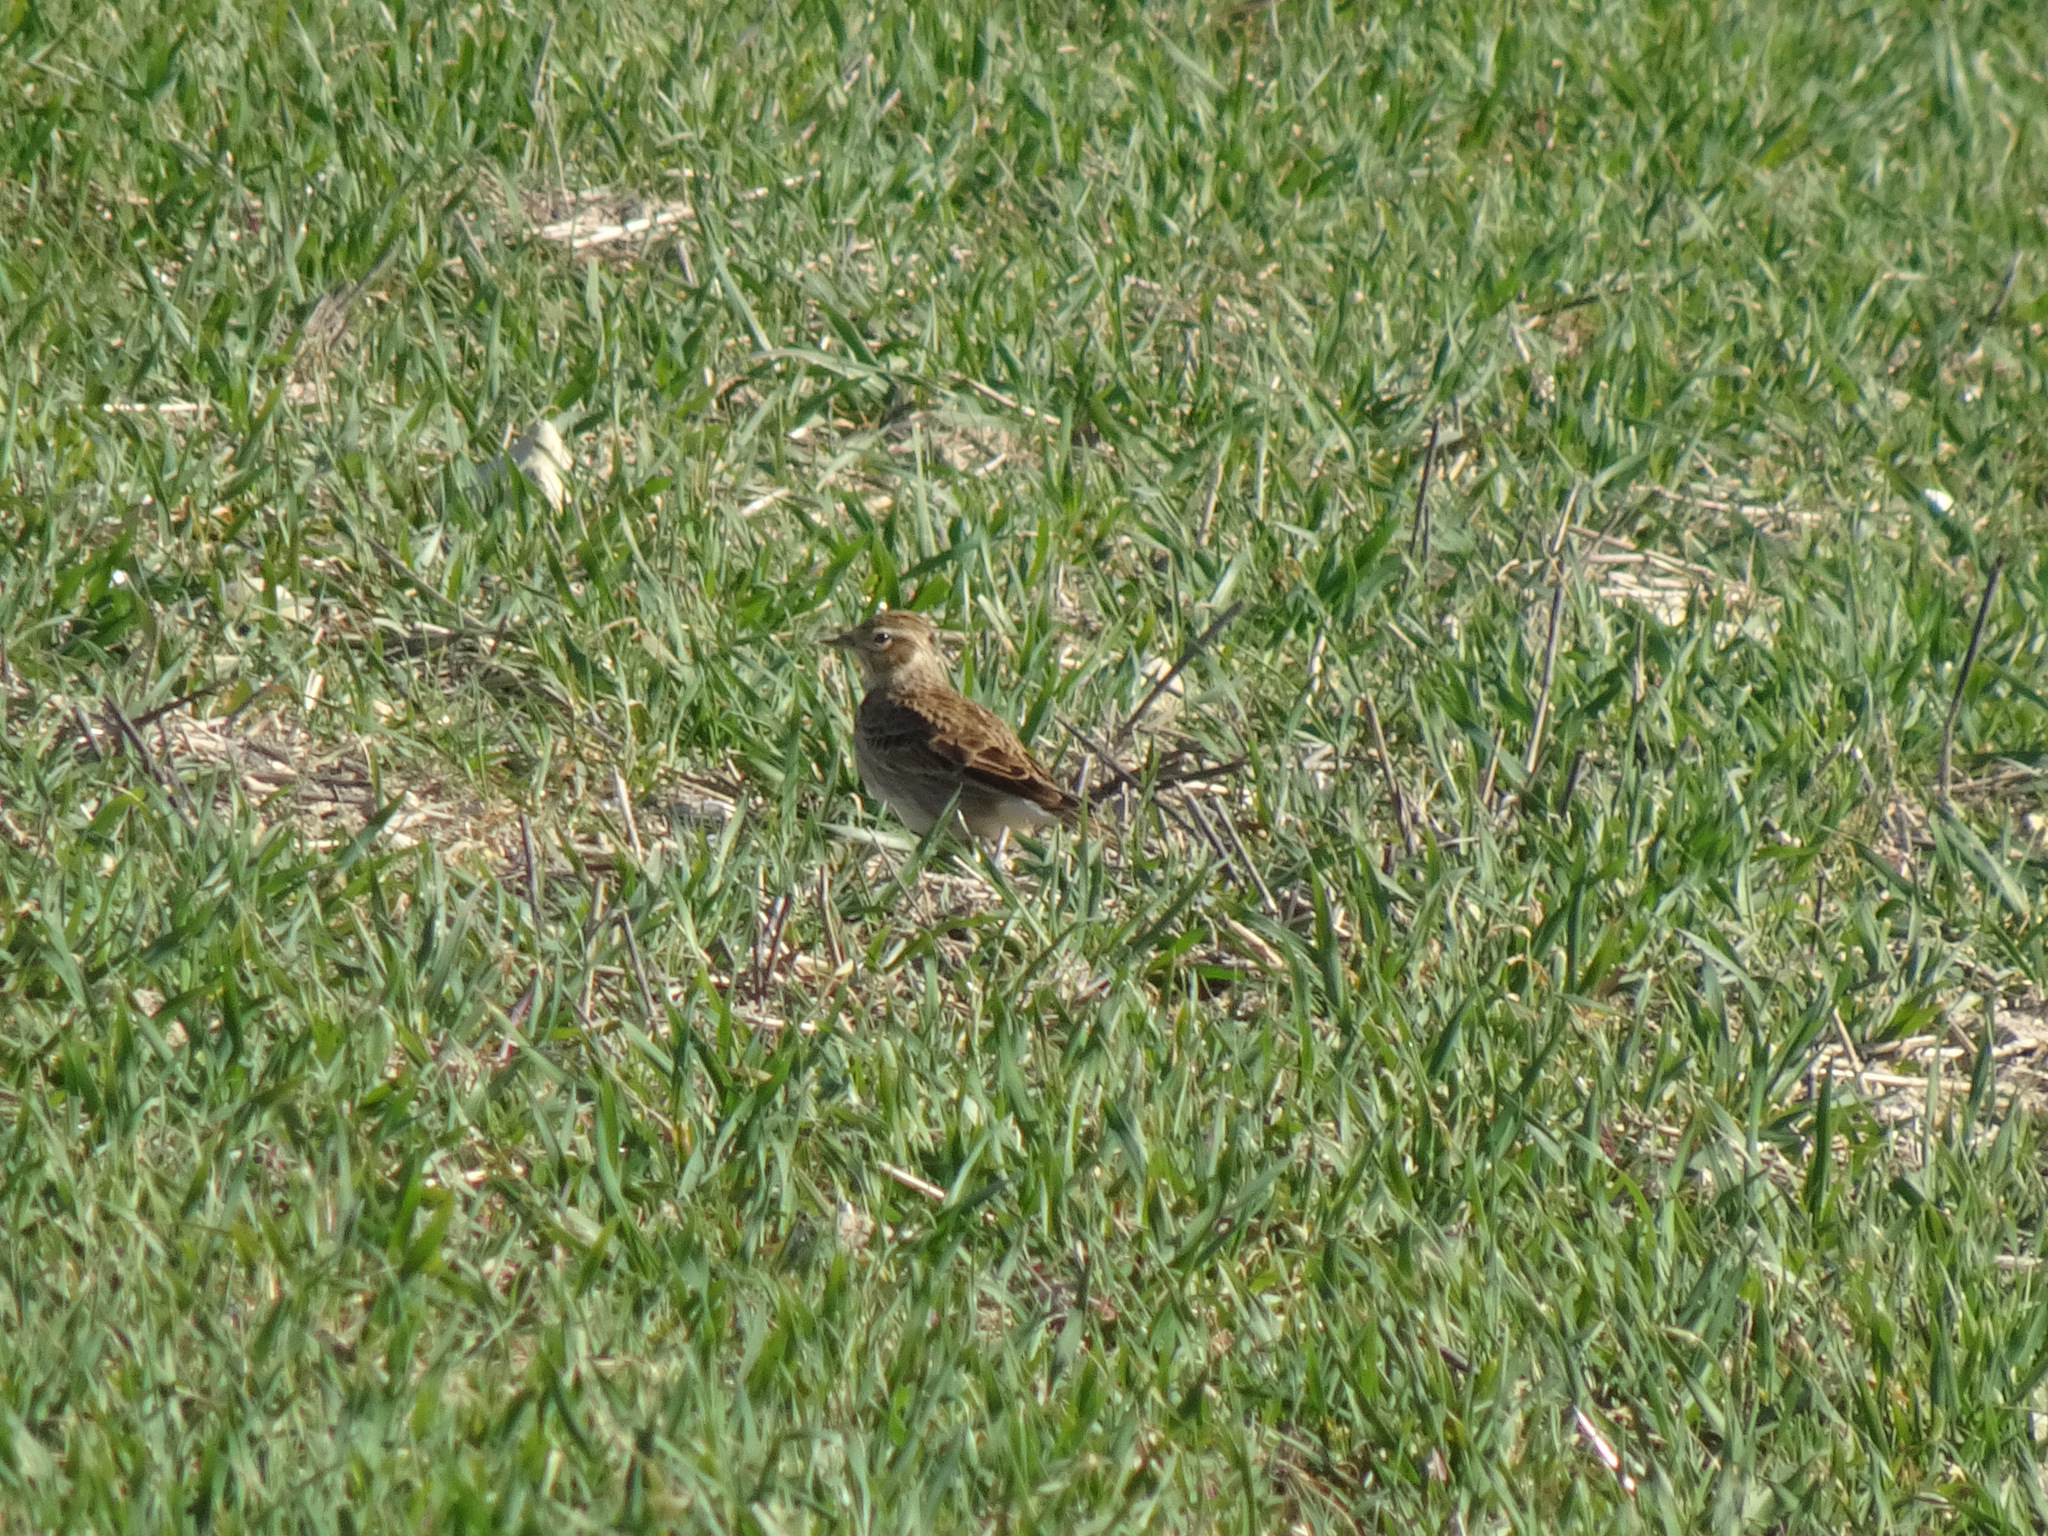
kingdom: Animalia
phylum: Chordata
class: Aves
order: Passeriformes
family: Alaudidae
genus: Alauda
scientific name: Alauda arvensis
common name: Eurasian skylark
